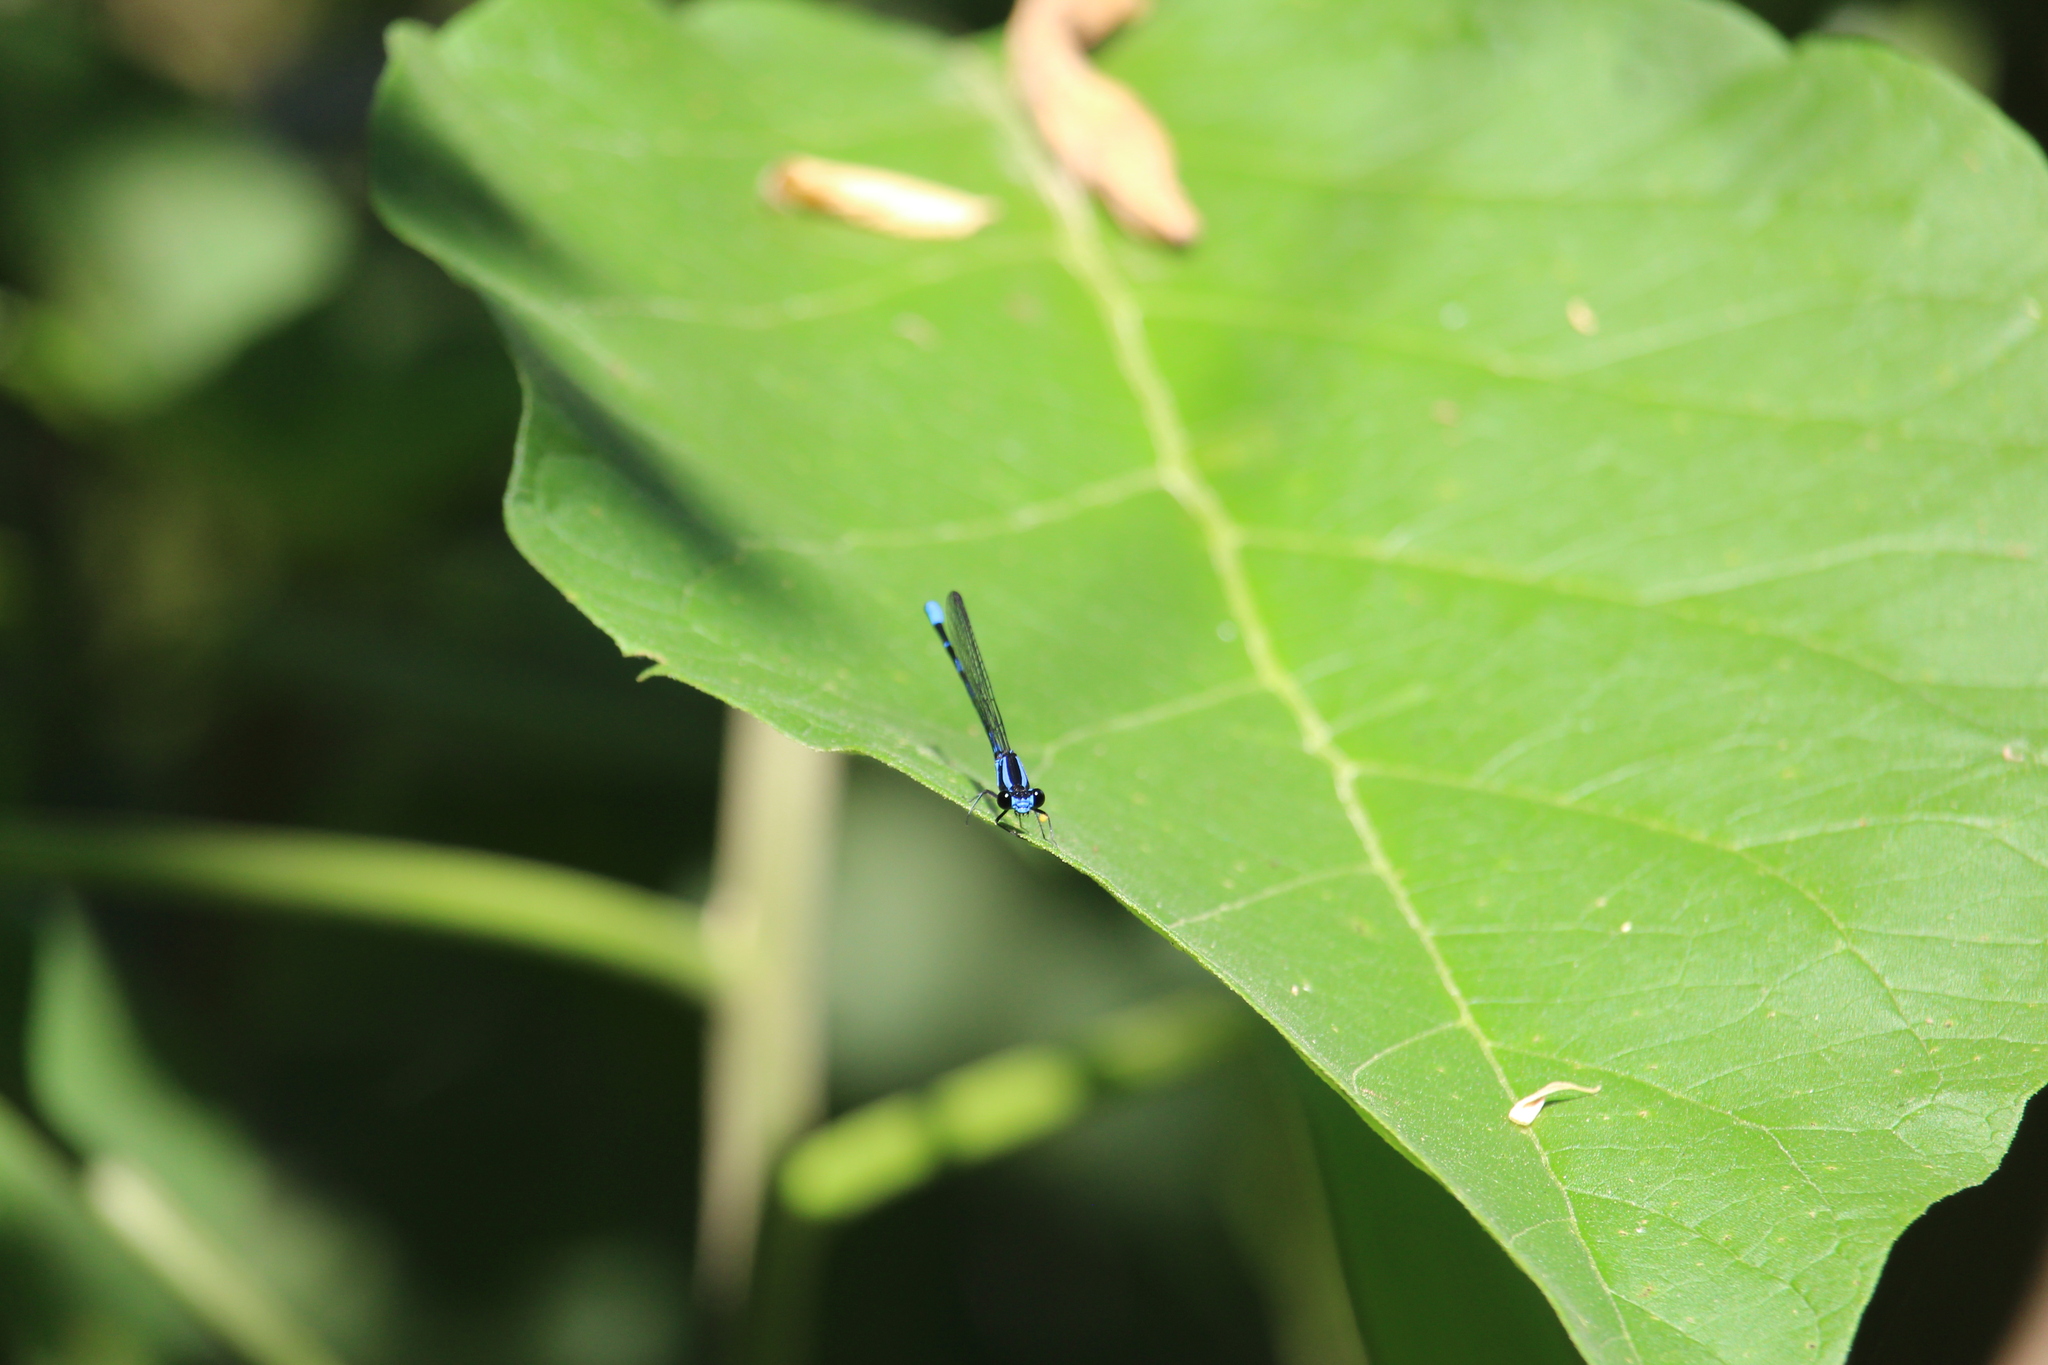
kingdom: Animalia
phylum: Arthropoda
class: Insecta
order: Odonata
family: Coenagrionidae
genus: Argia
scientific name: Argia oculata
